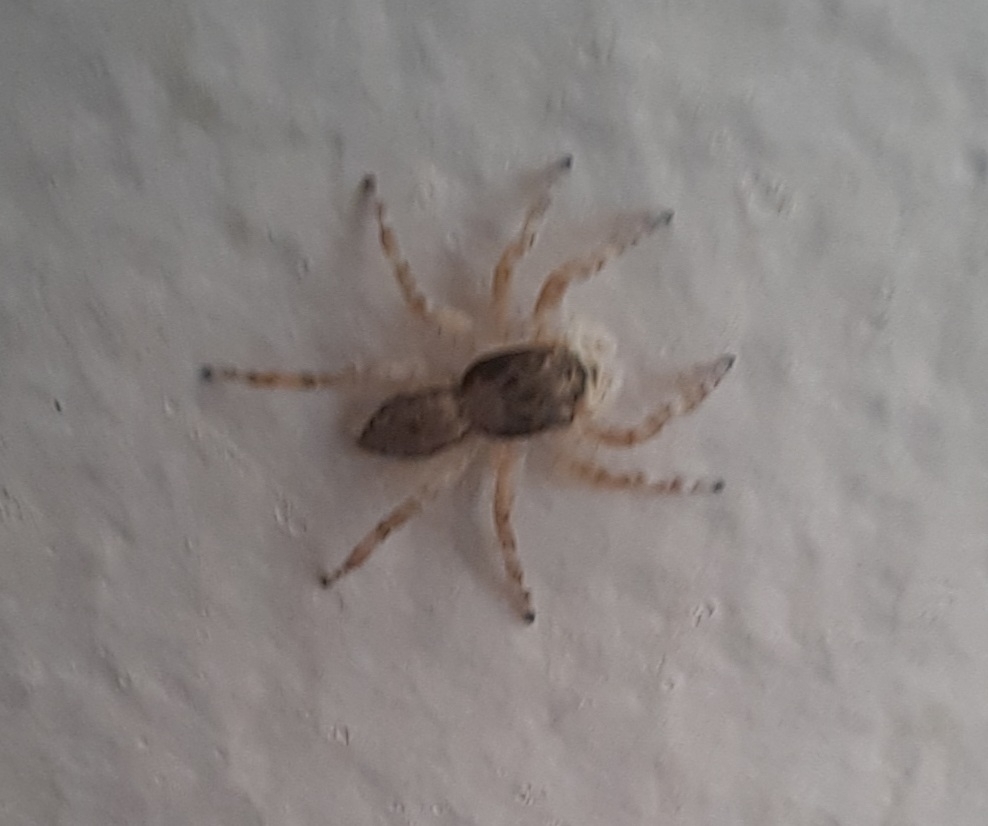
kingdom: Animalia
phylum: Arthropoda
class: Arachnida
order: Araneae
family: Salticidae
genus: Menemerus
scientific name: Menemerus bivittatus
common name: Gray wall jumper
